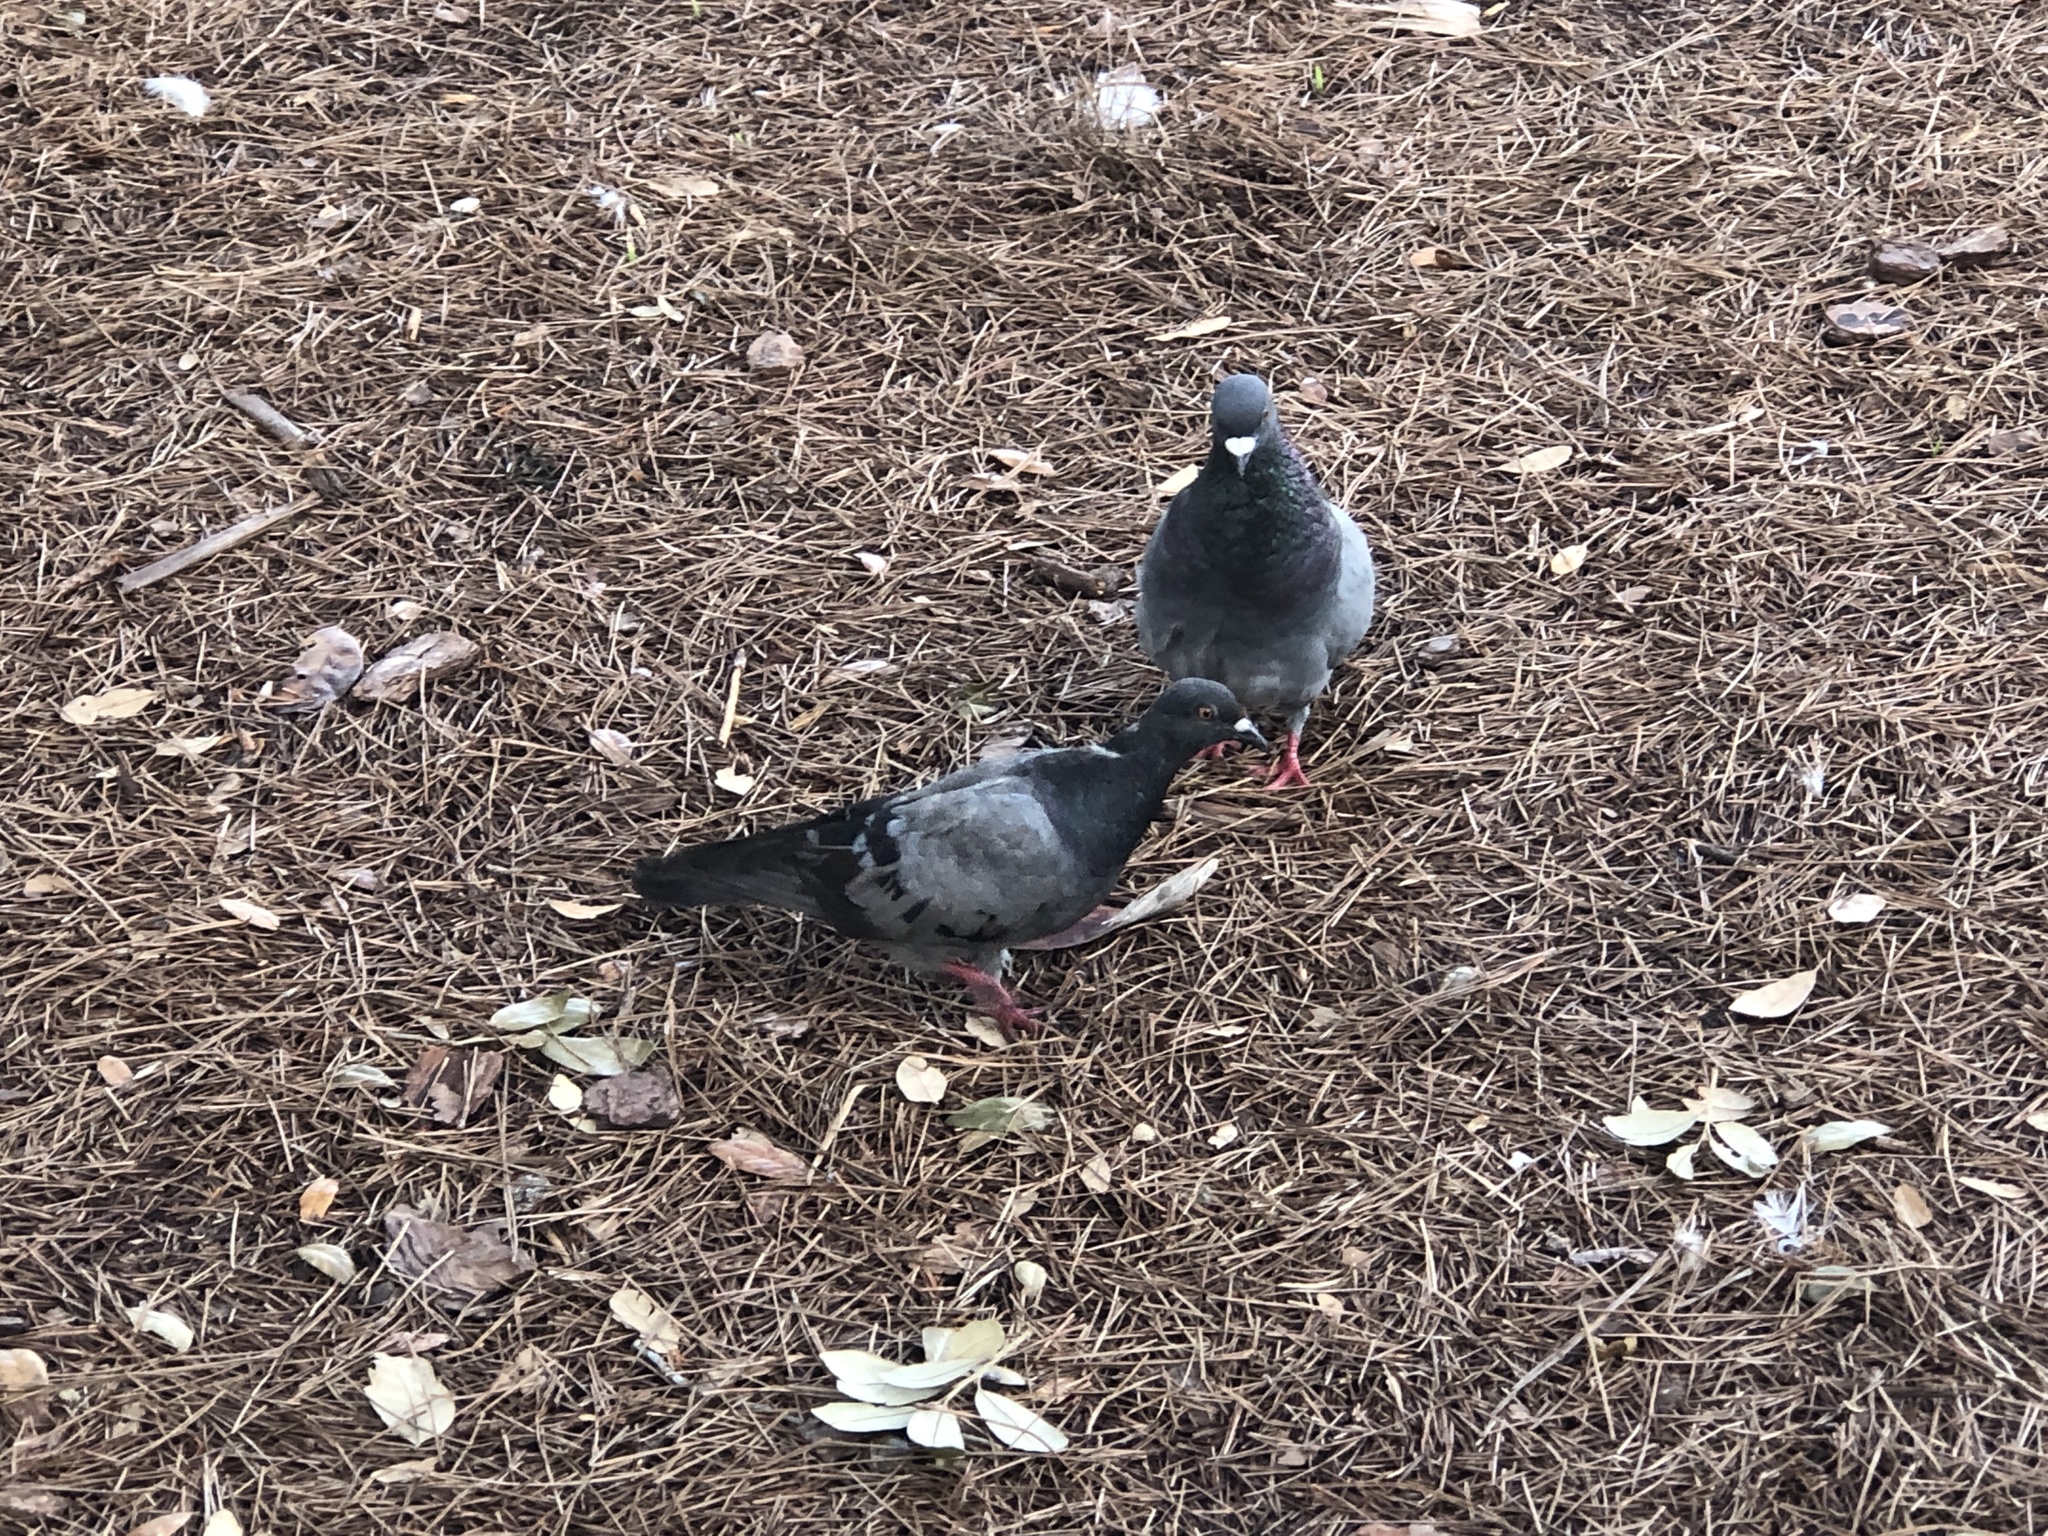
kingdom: Animalia
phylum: Chordata
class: Aves
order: Columbiformes
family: Columbidae
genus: Columba
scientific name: Columba livia
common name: Rock pigeon
